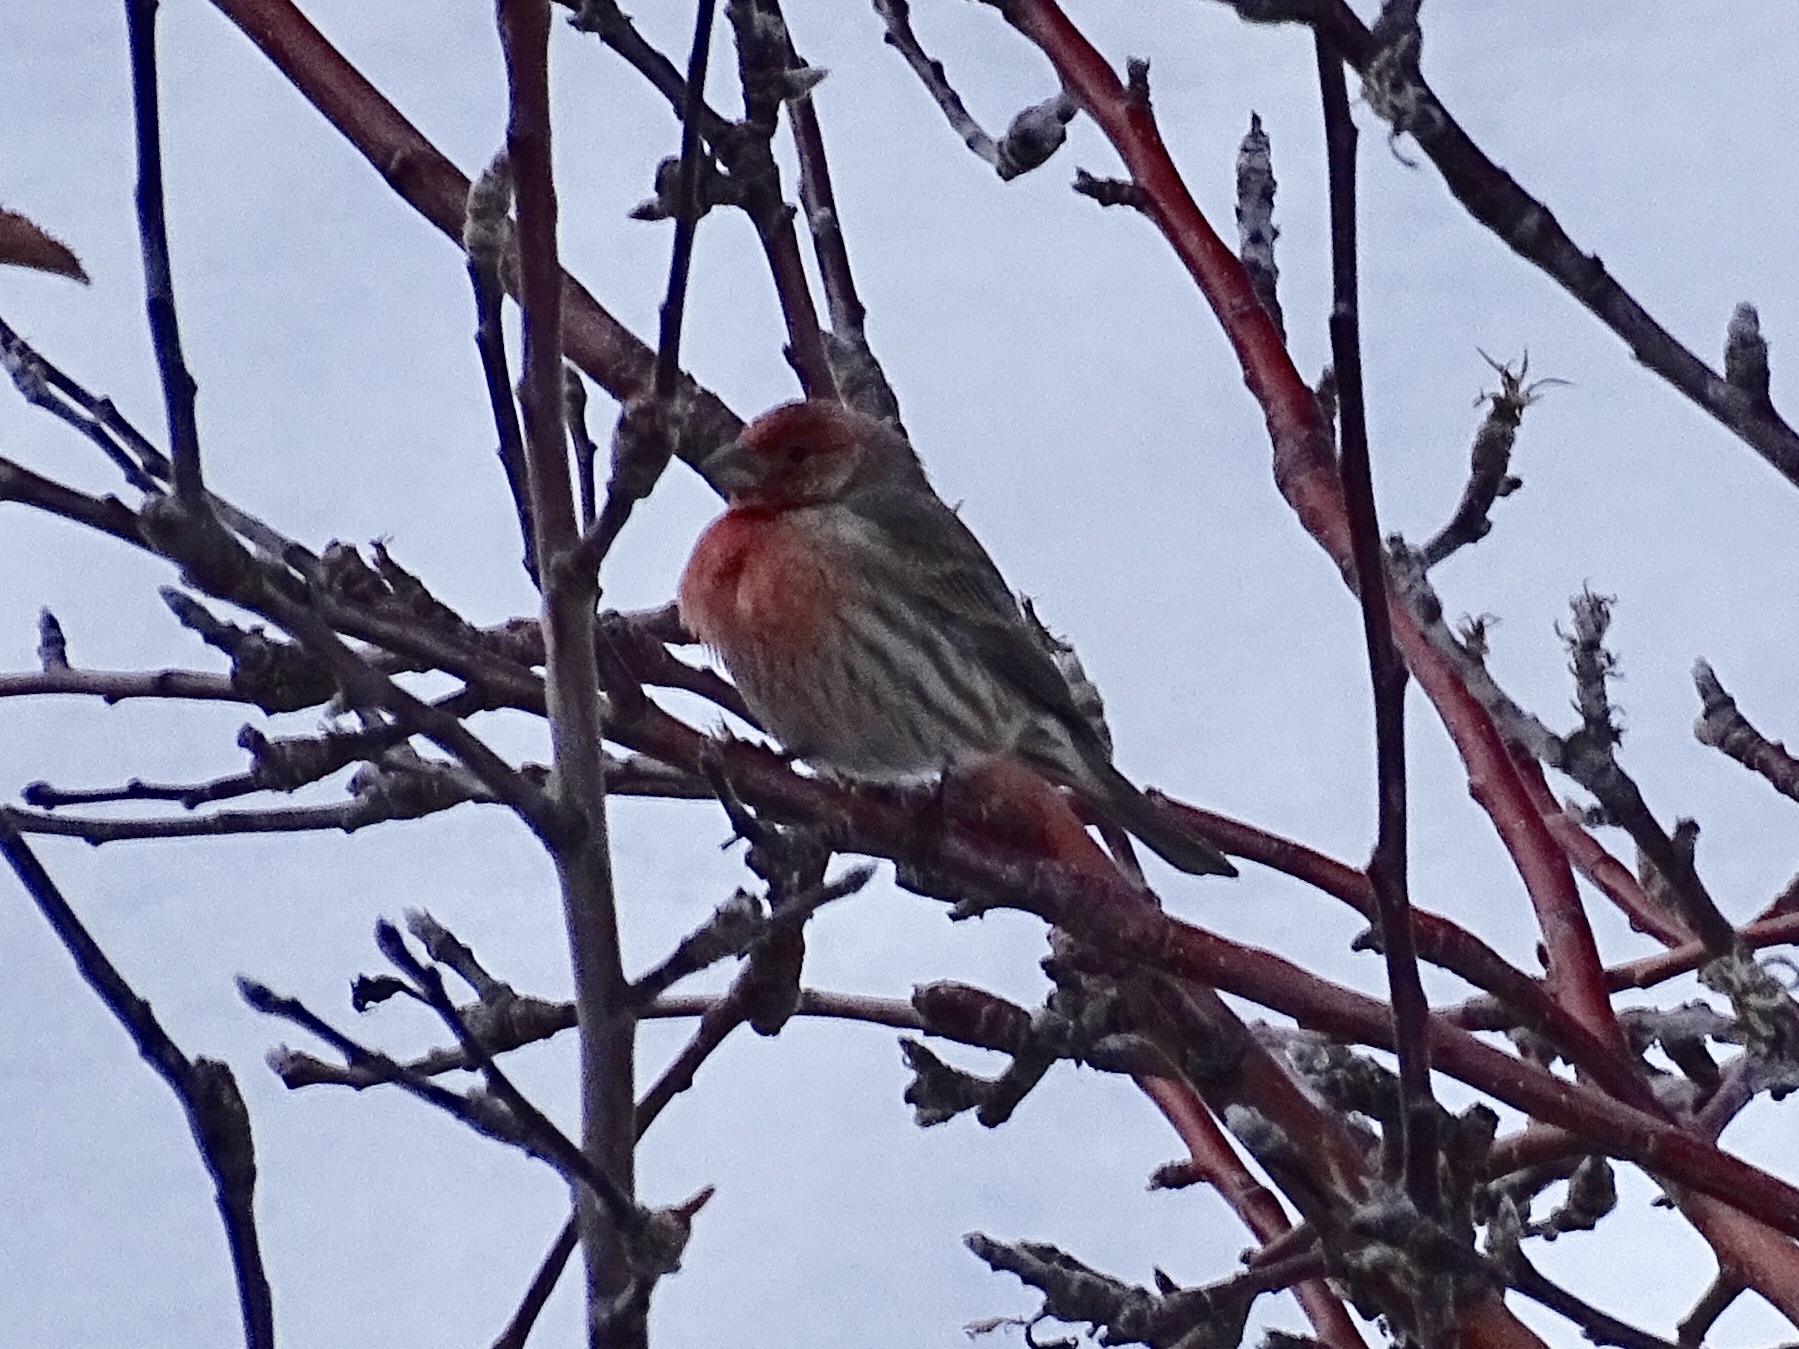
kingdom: Animalia
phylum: Chordata
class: Aves
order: Passeriformes
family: Fringillidae
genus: Haemorhous
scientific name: Haemorhous mexicanus
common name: House finch
